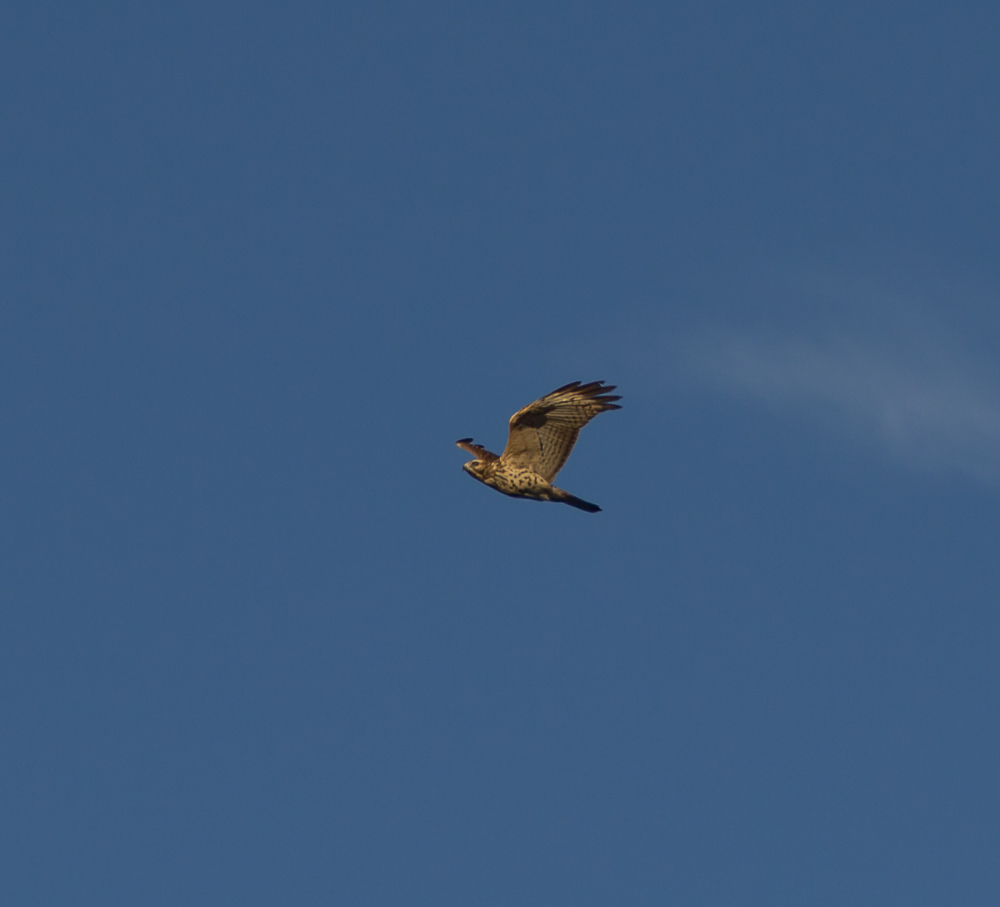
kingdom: Animalia
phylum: Chordata
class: Aves
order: Accipitriformes
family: Accipitridae
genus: Buteo
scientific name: Buteo lineatus
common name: Red-shouldered hawk
